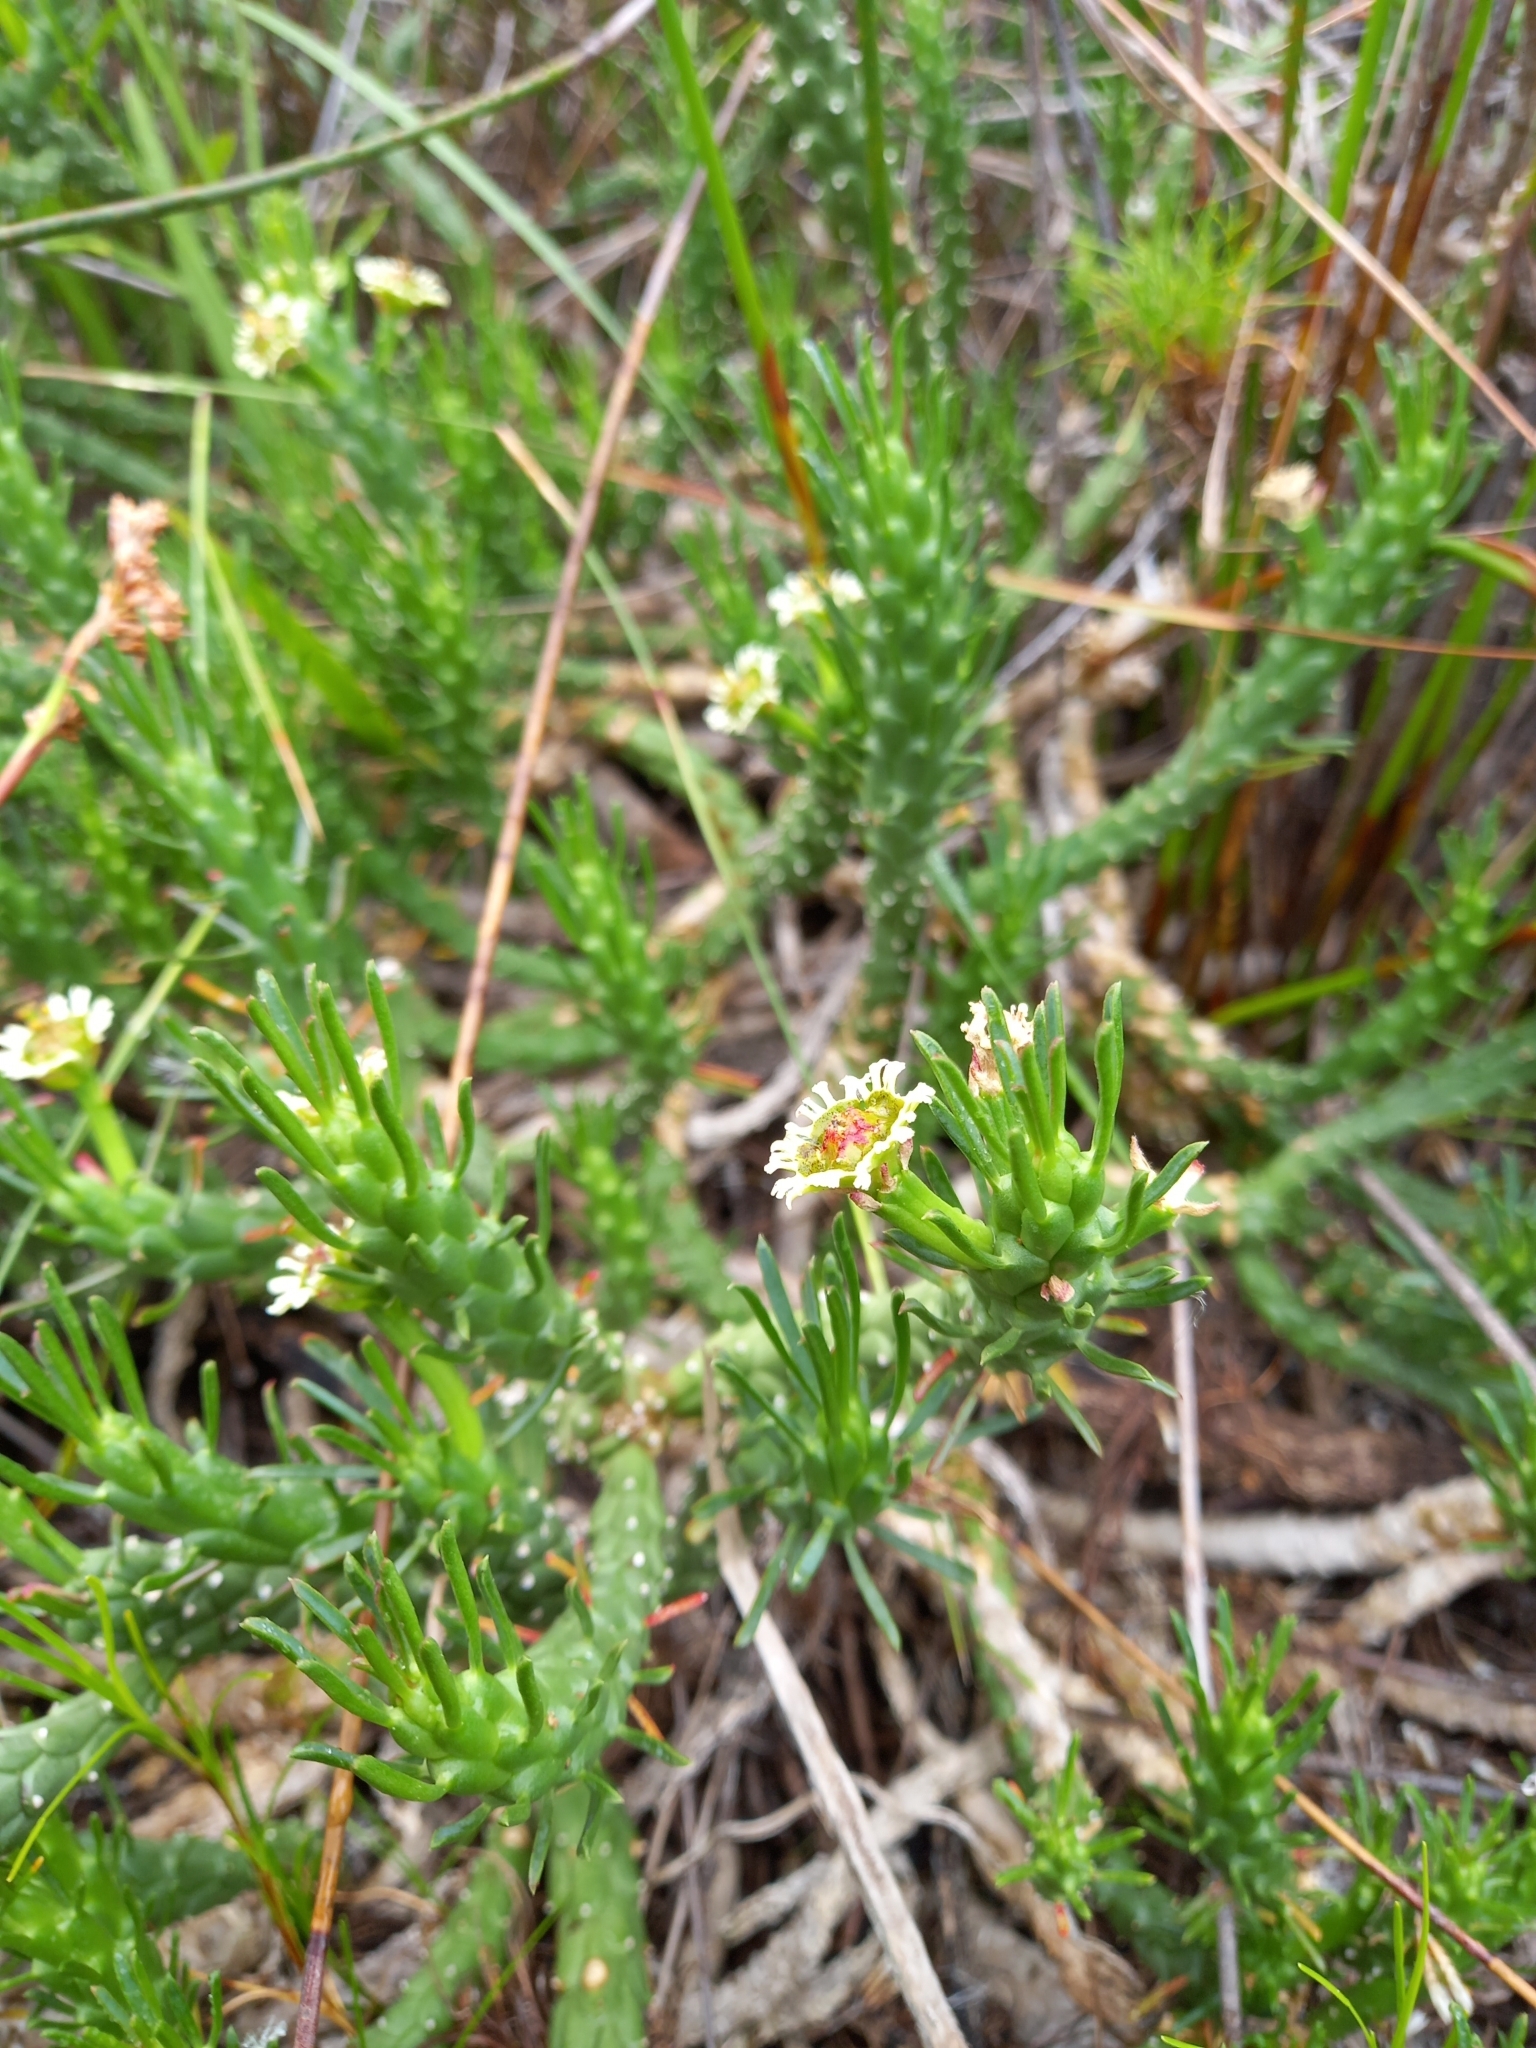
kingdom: Plantae
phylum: Tracheophyta
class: Magnoliopsida
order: Malpighiales
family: Euphorbiaceae
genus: Euphorbia
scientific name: Euphorbia caput-medusae
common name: Medusa's-head
